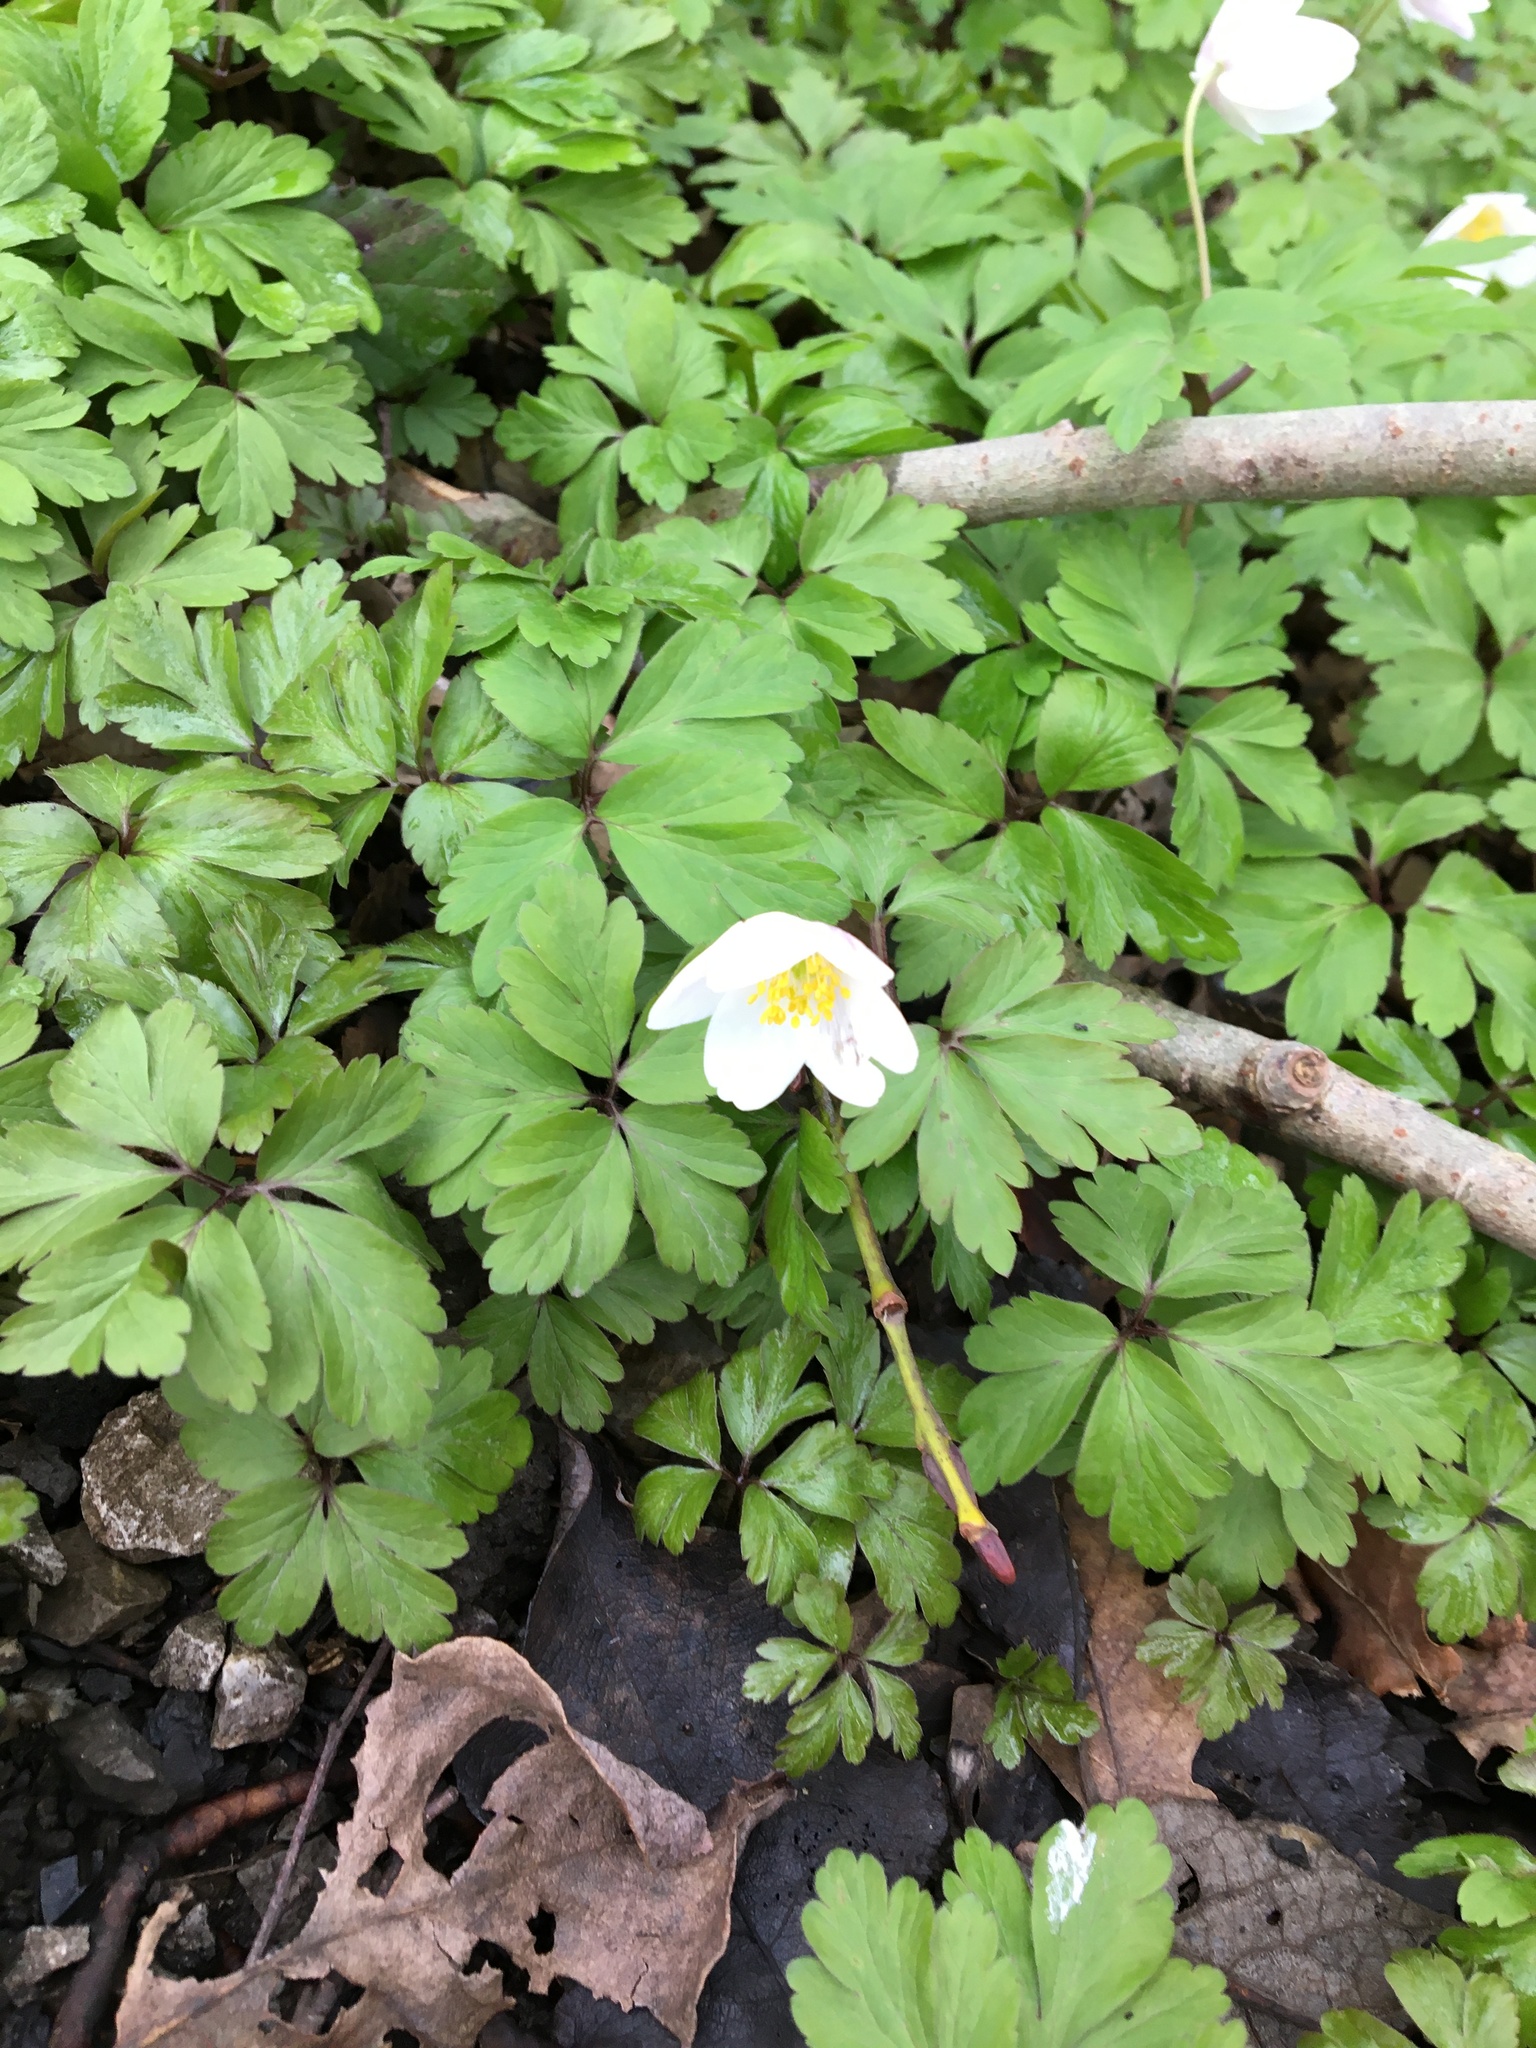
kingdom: Plantae
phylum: Tracheophyta
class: Magnoliopsida
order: Ranunculales
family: Ranunculaceae
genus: Anemone
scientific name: Anemone nemorosa
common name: Wood anemone
